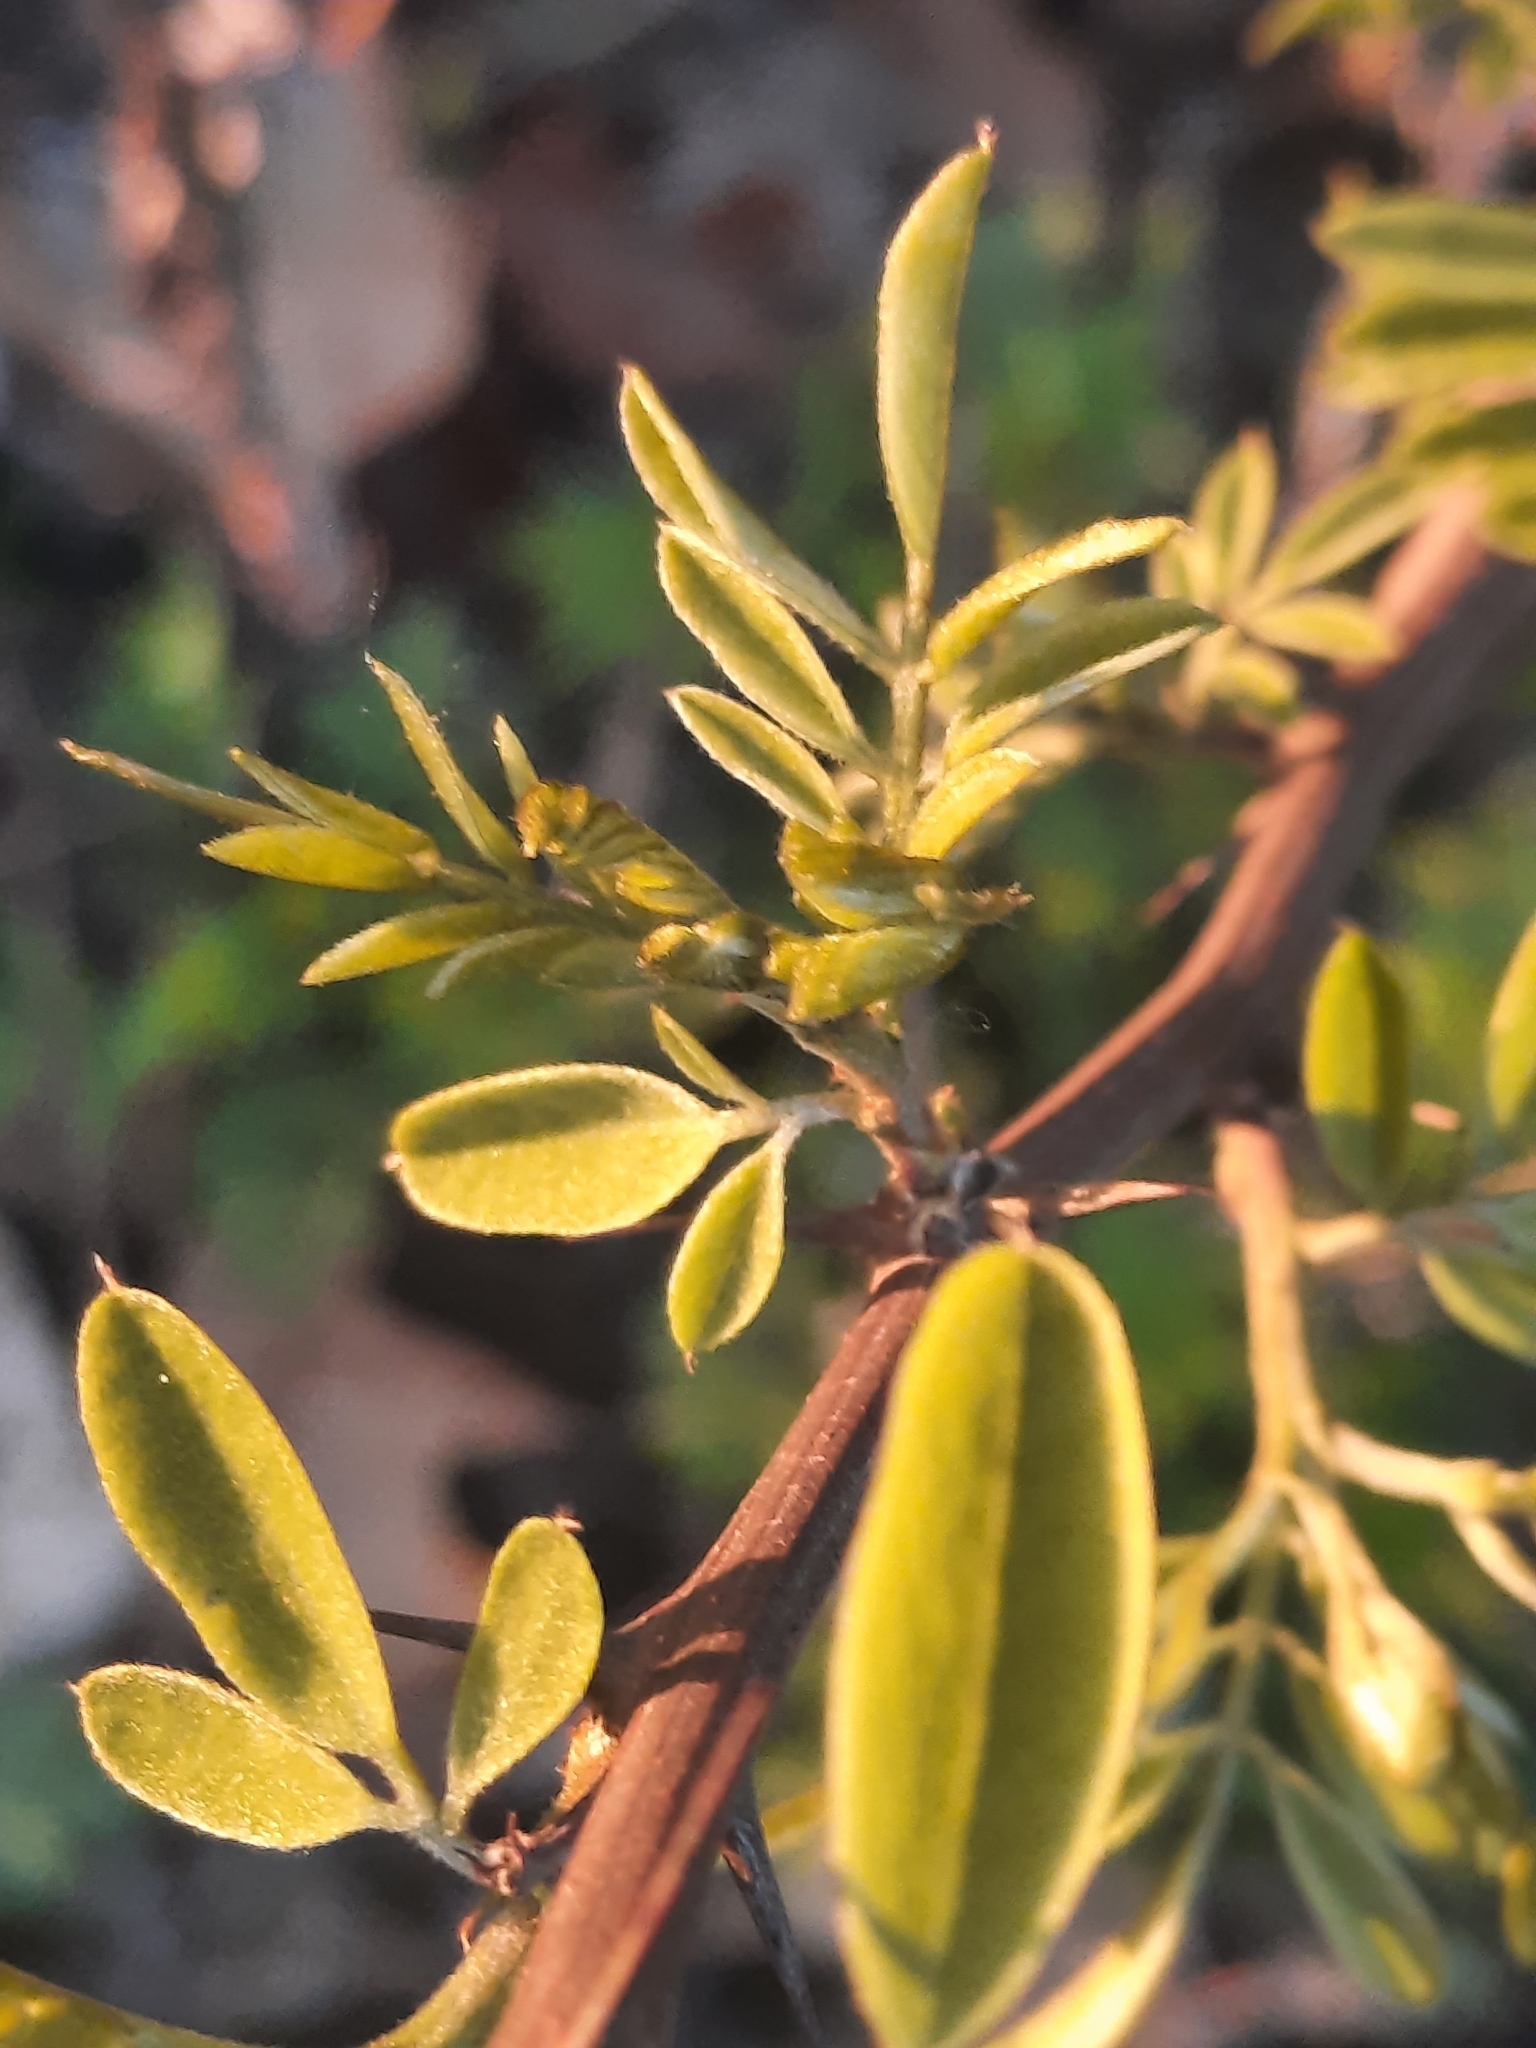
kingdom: Plantae
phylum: Tracheophyta
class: Magnoliopsida
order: Fabales
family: Fabaceae
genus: Robinia
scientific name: Robinia pseudoacacia
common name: Black locust
